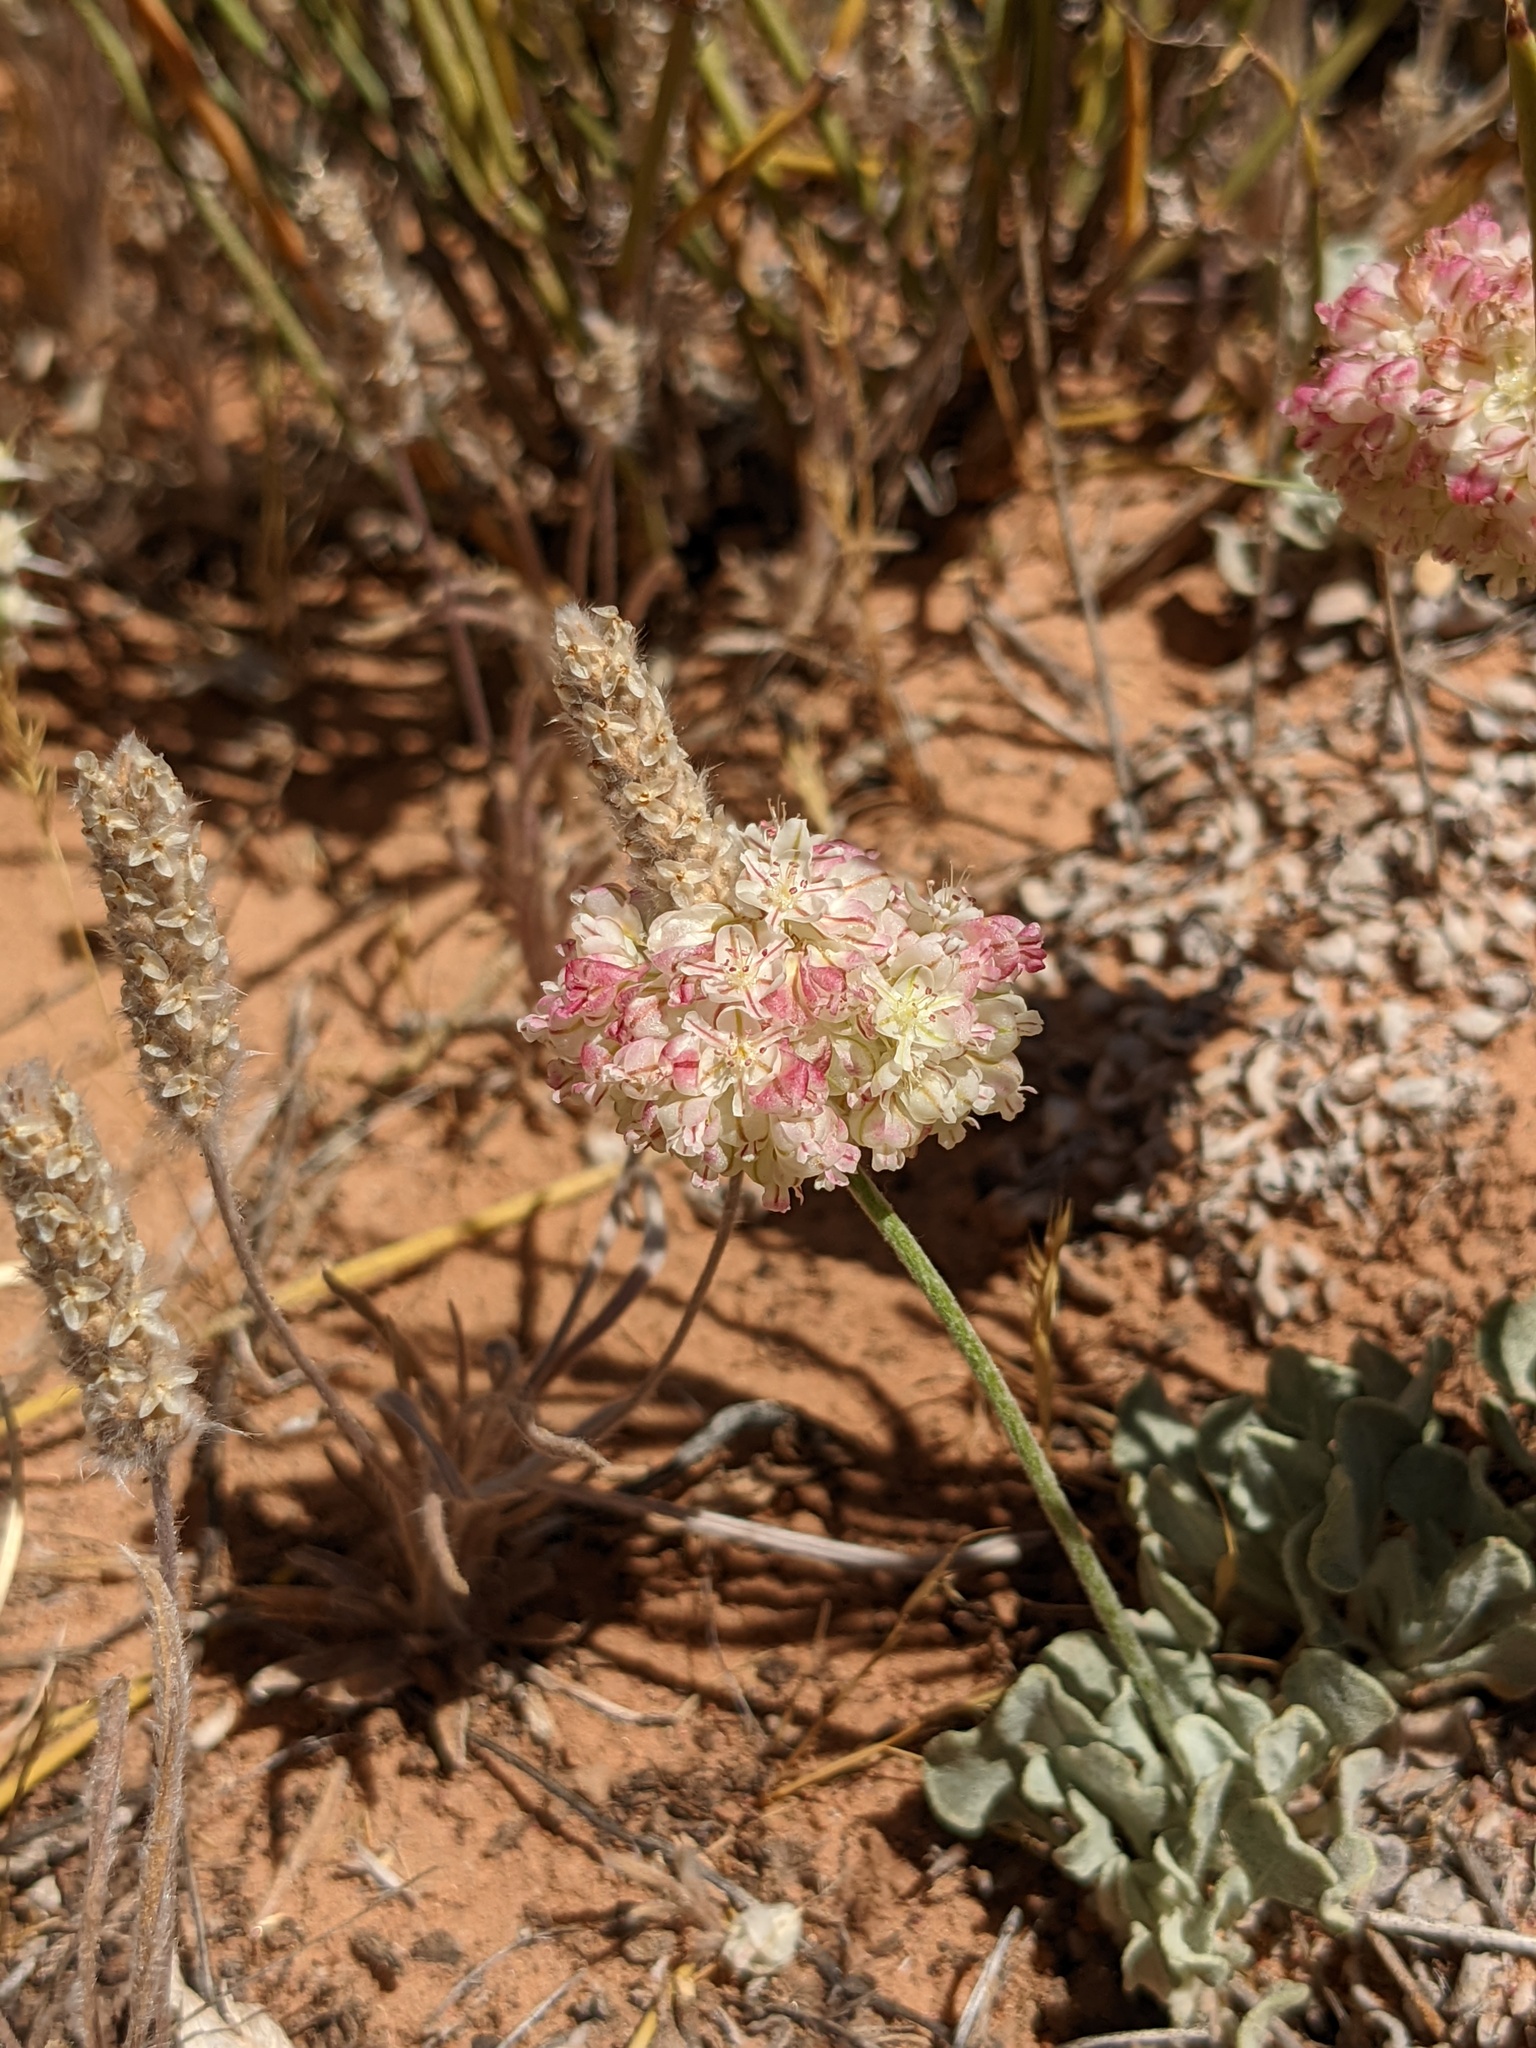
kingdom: Plantae
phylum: Tracheophyta
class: Magnoliopsida
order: Caryophyllales
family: Polygonaceae
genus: Eriogonum
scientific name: Eriogonum ovalifolium
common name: Cushion buckwheat
